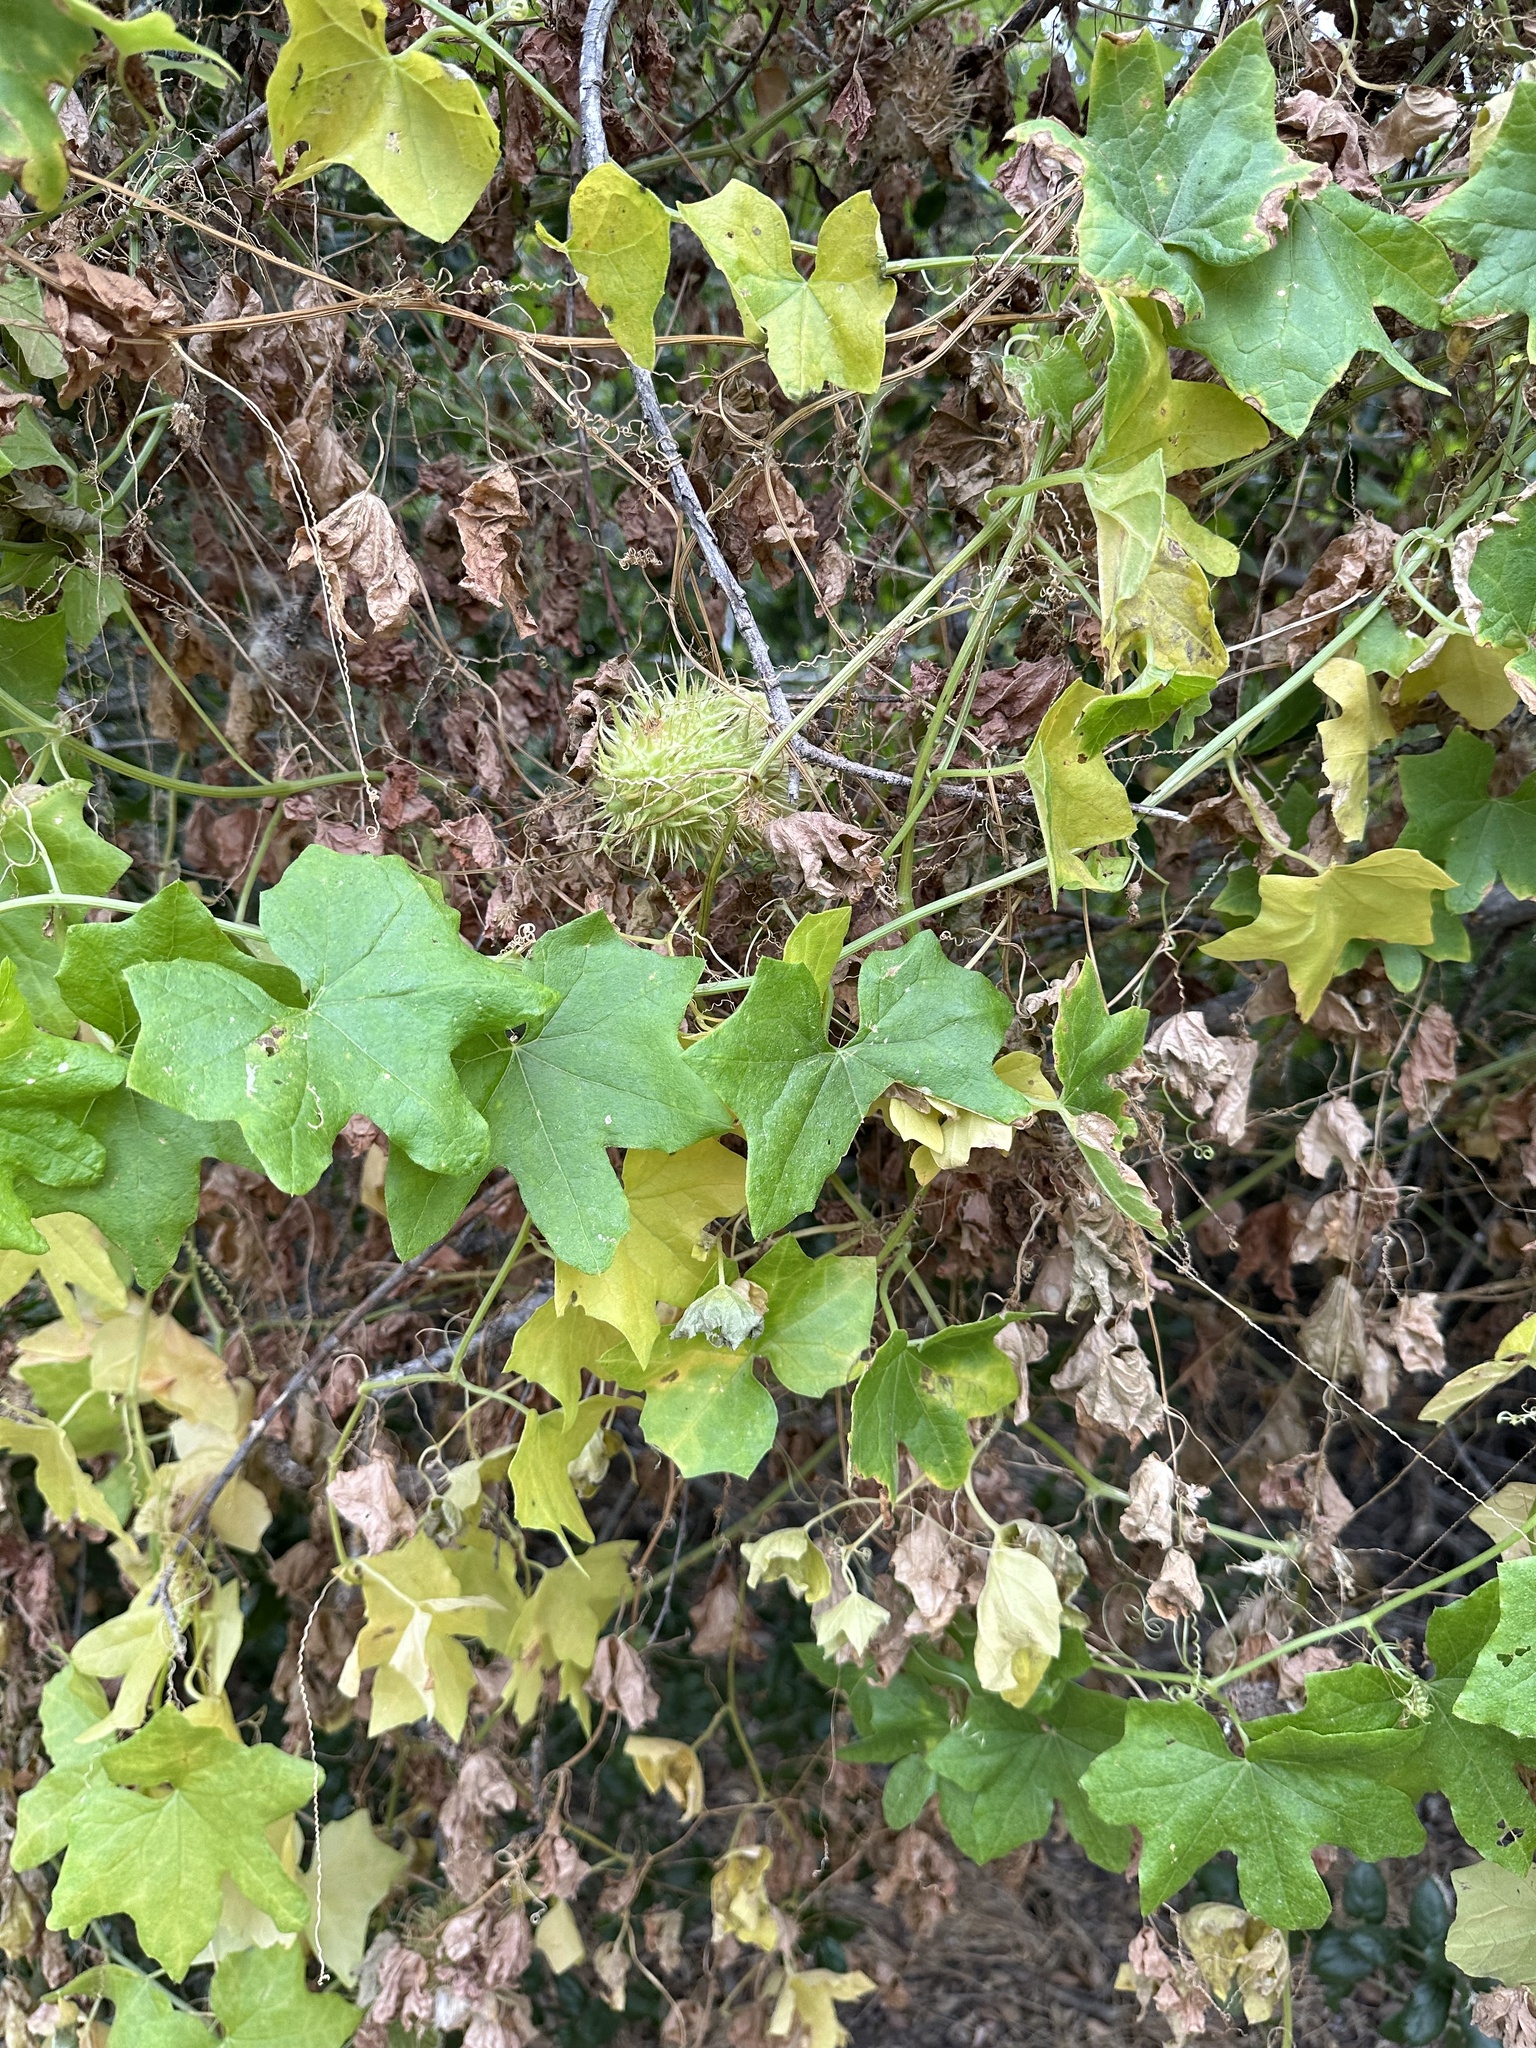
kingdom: Plantae
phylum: Tracheophyta
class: Magnoliopsida
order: Cucurbitales
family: Cucurbitaceae
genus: Marah
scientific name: Marah macrocarpa
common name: Cucamonga manroot
